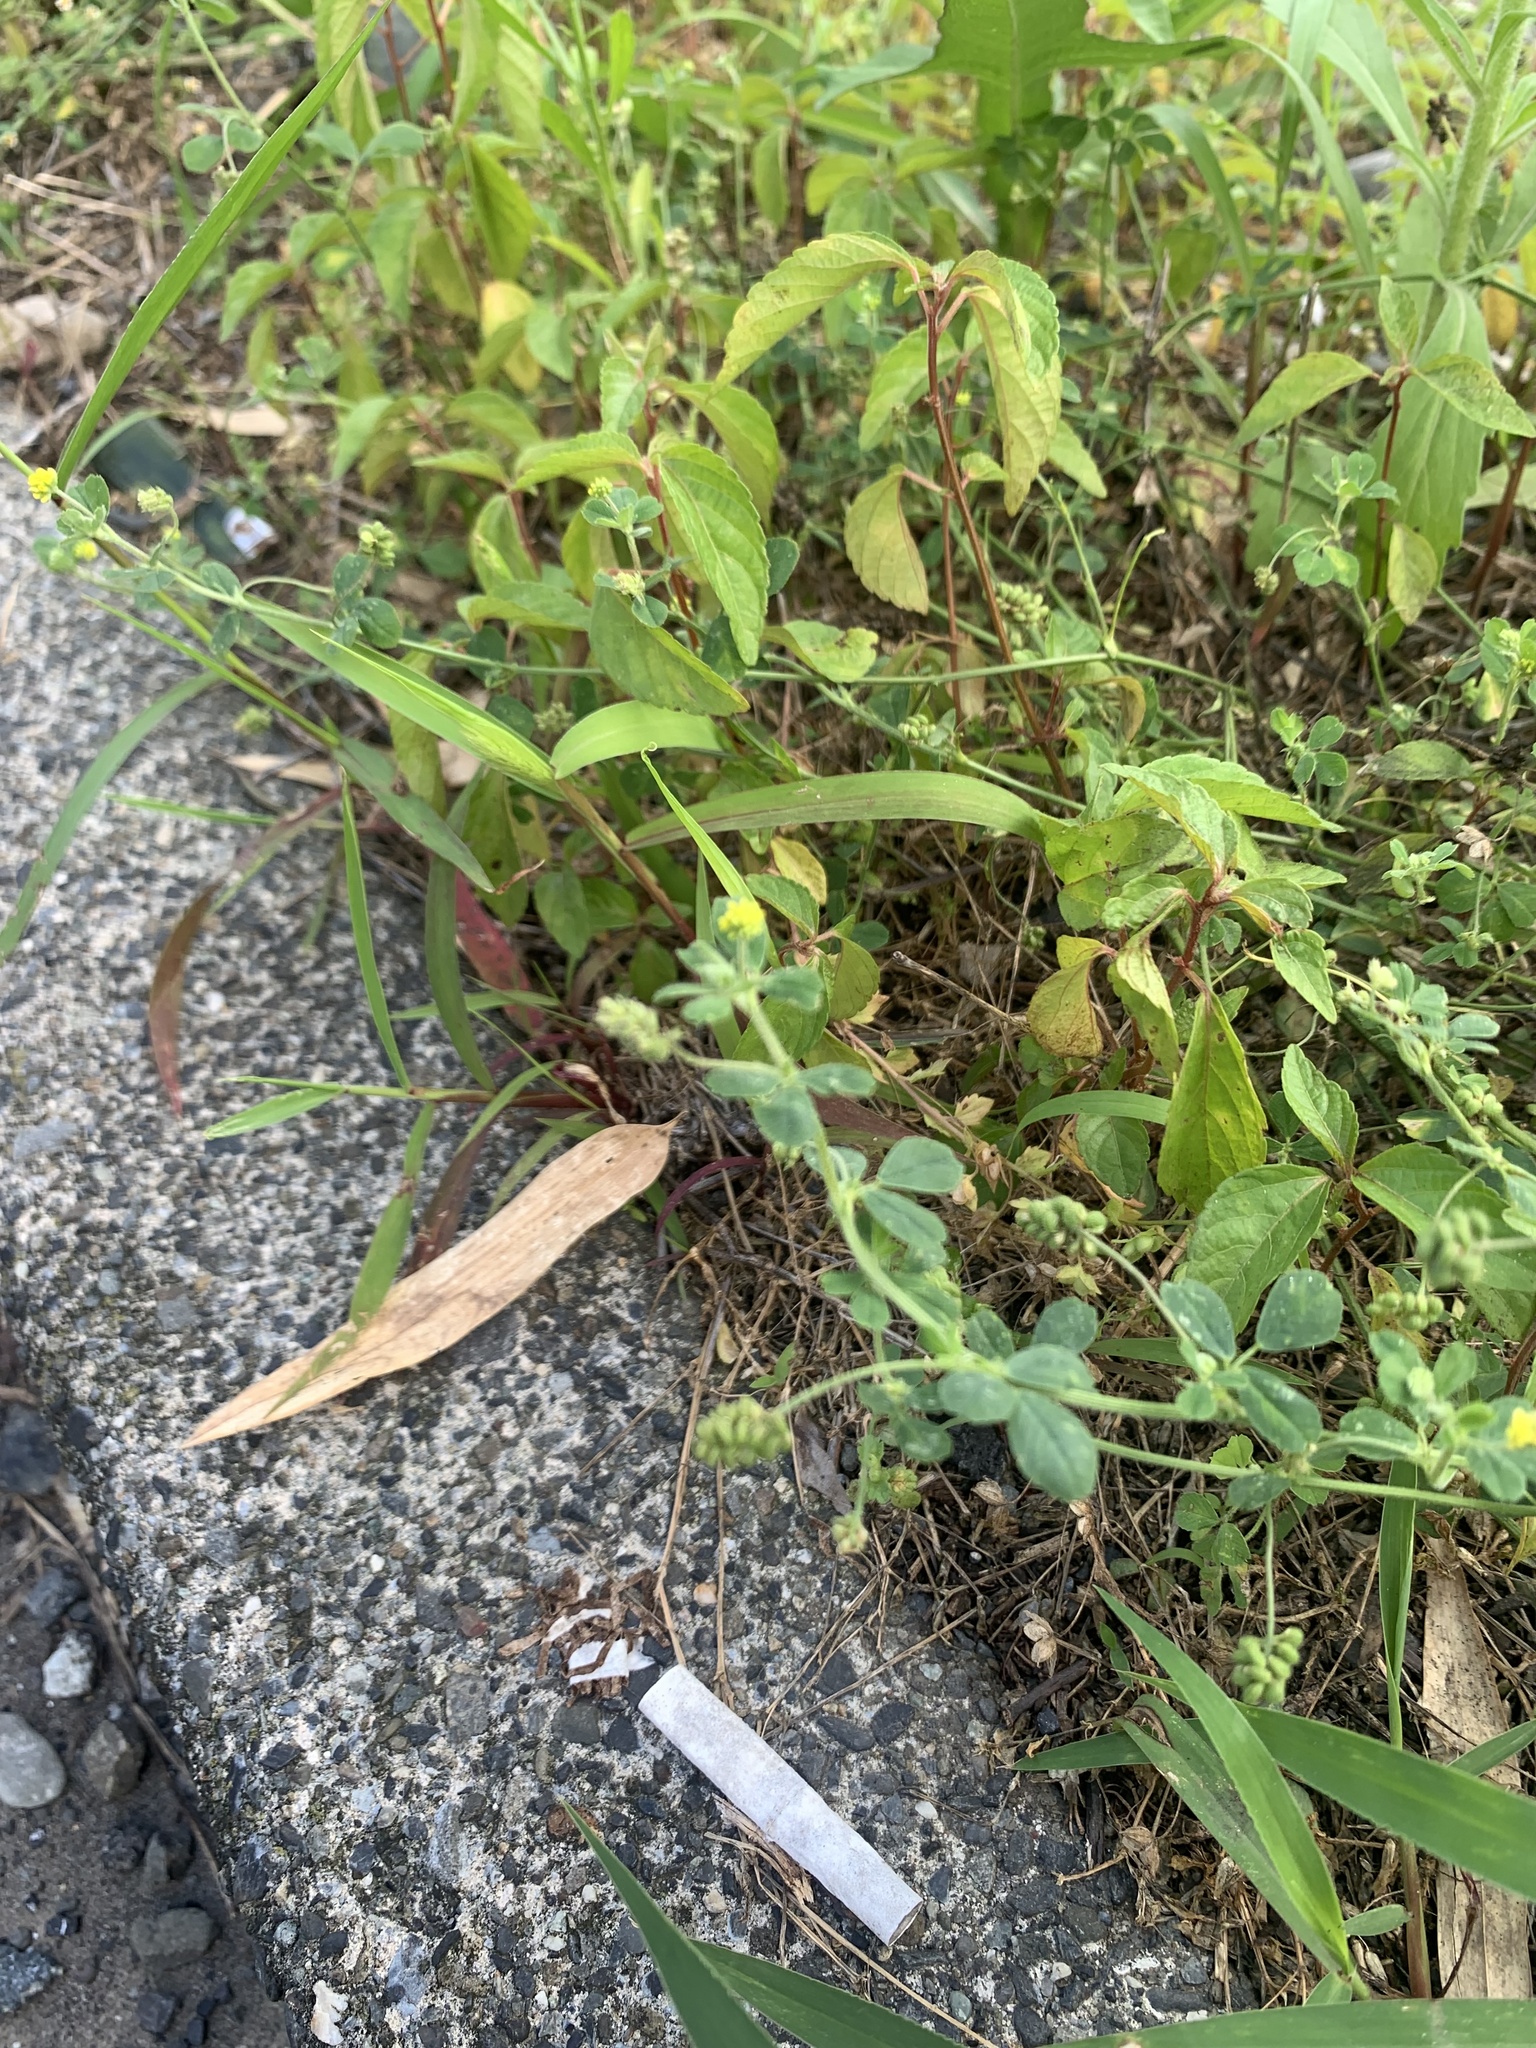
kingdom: Plantae
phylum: Tracheophyta
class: Magnoliopsida
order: Fabales
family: Fabaceae
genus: Medicago
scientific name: Medicago lupulina
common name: Black medick
